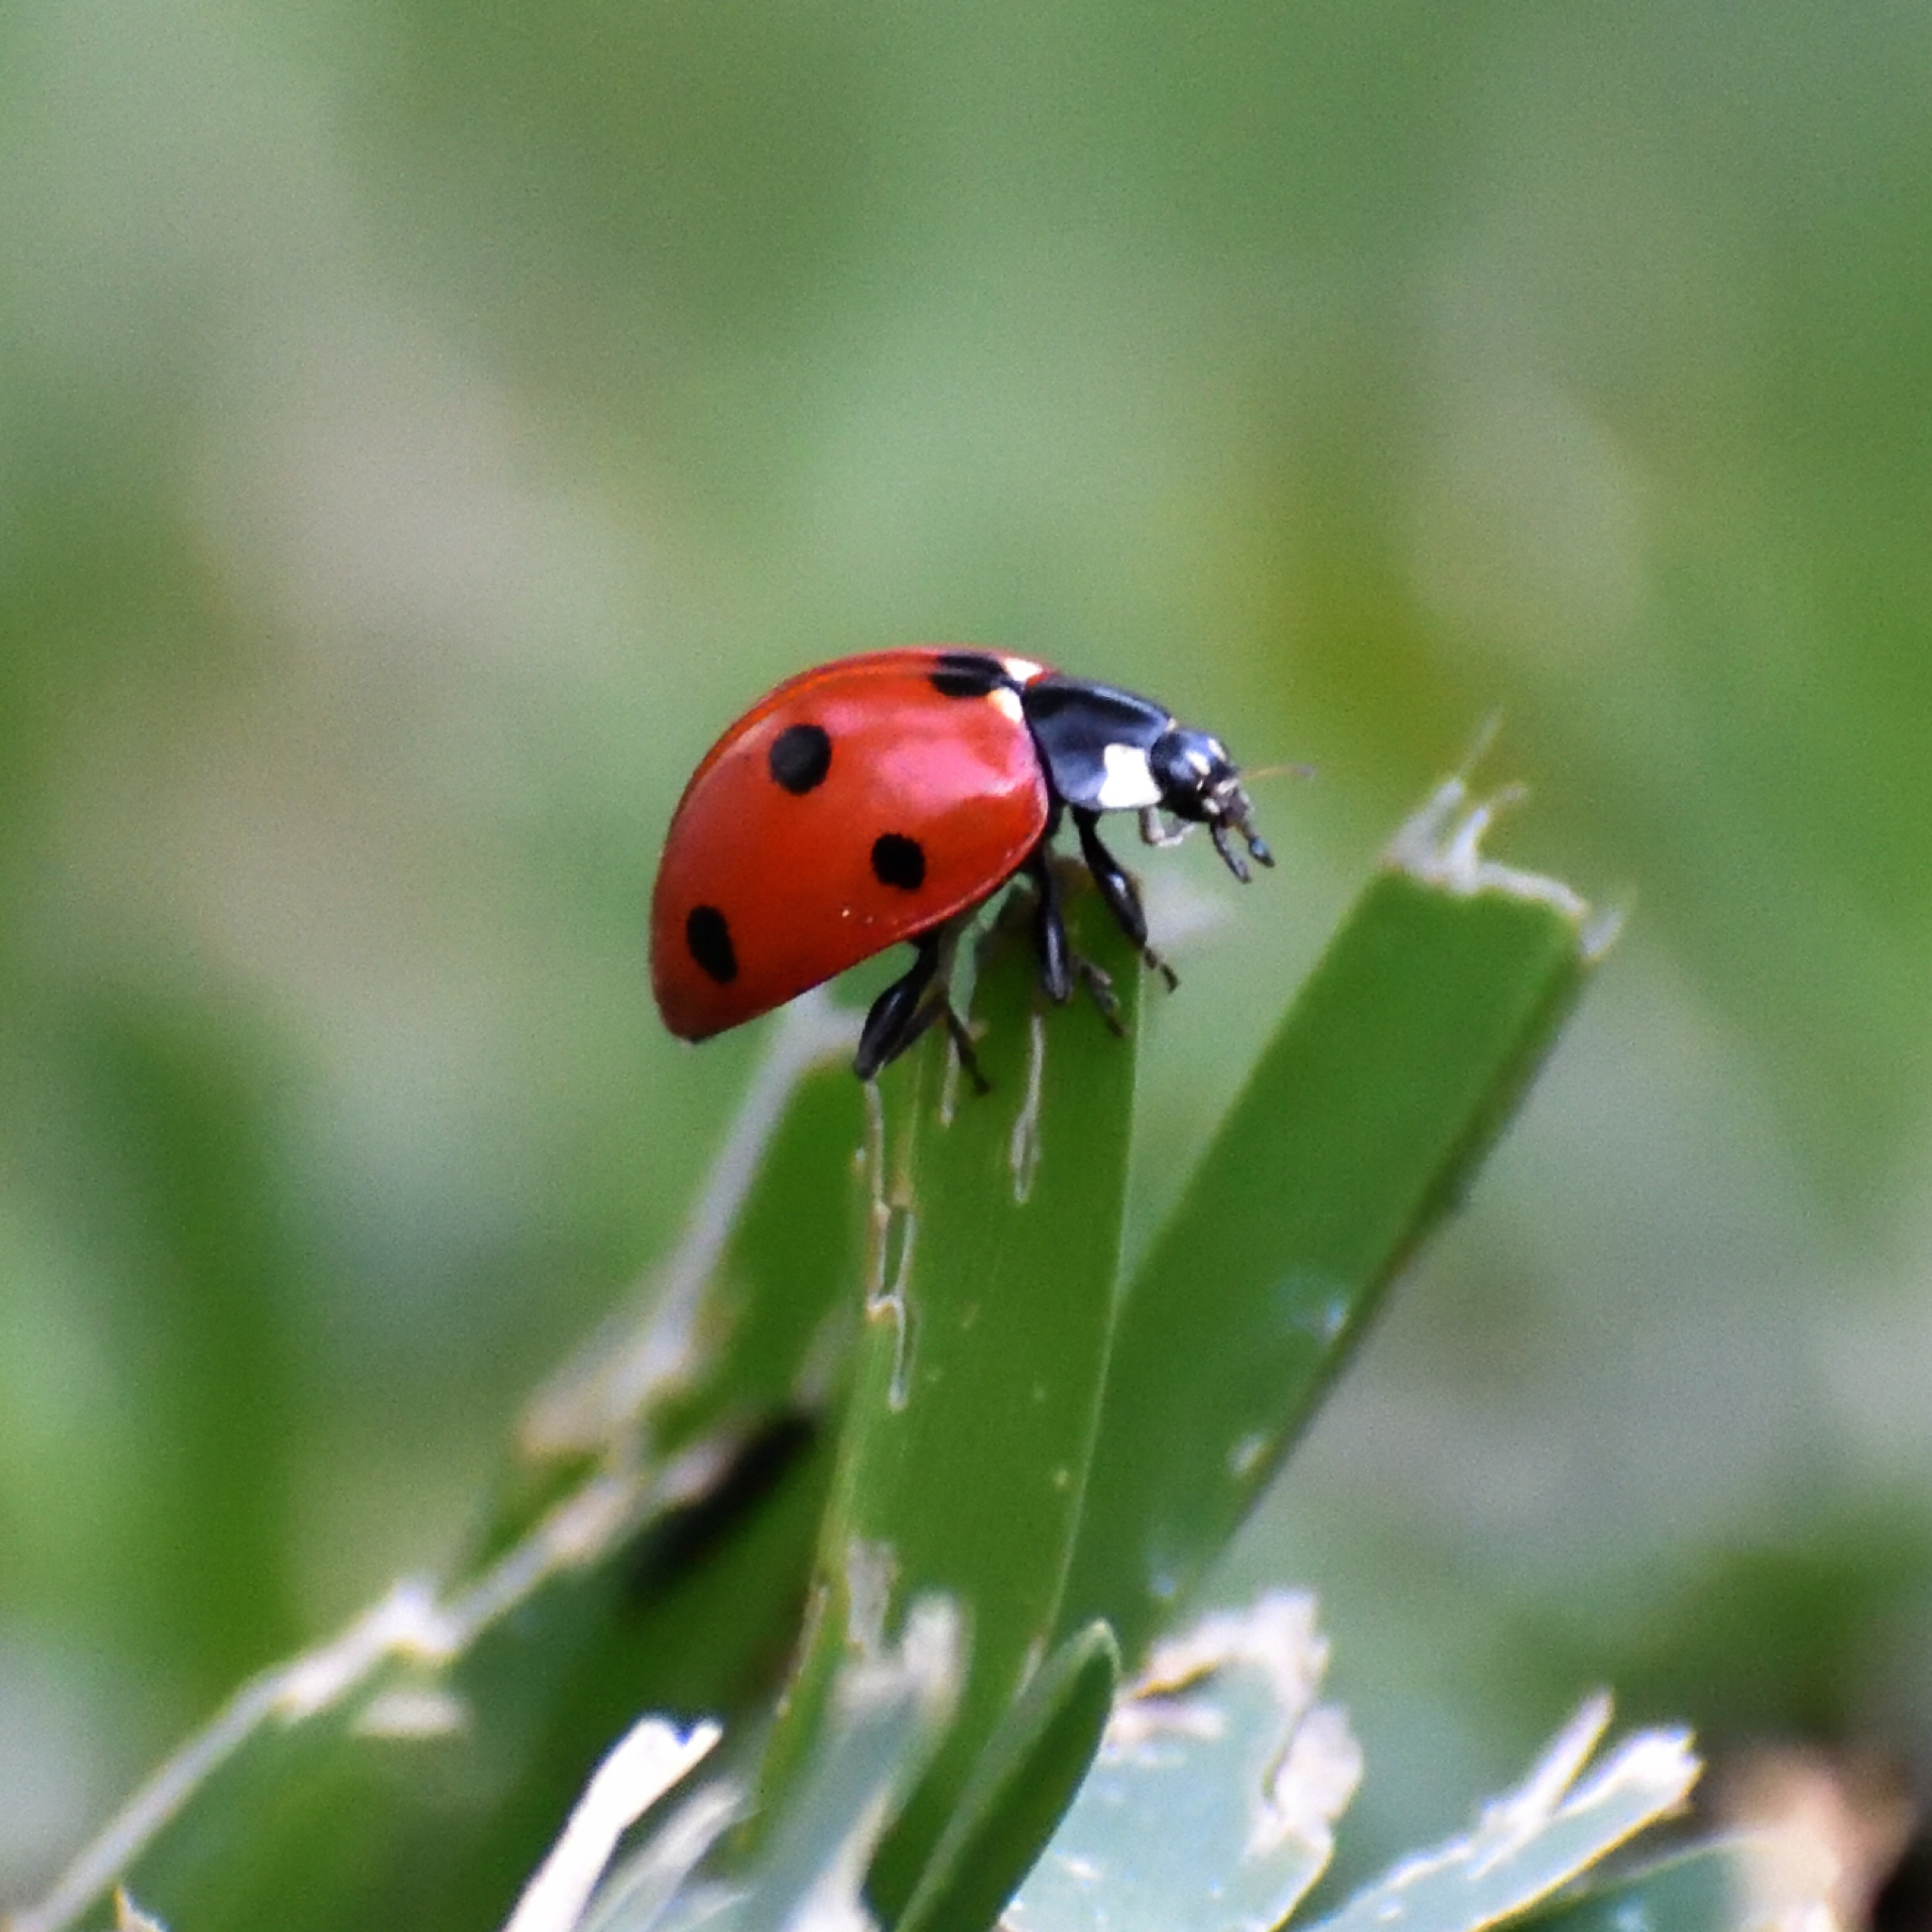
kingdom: Animalia
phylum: Arthropoda
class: Insecta
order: Coleoptera
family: Coccinellidae
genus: Coccinella
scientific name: Coccinella septempunctata
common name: Sevenspotted lady beetle
